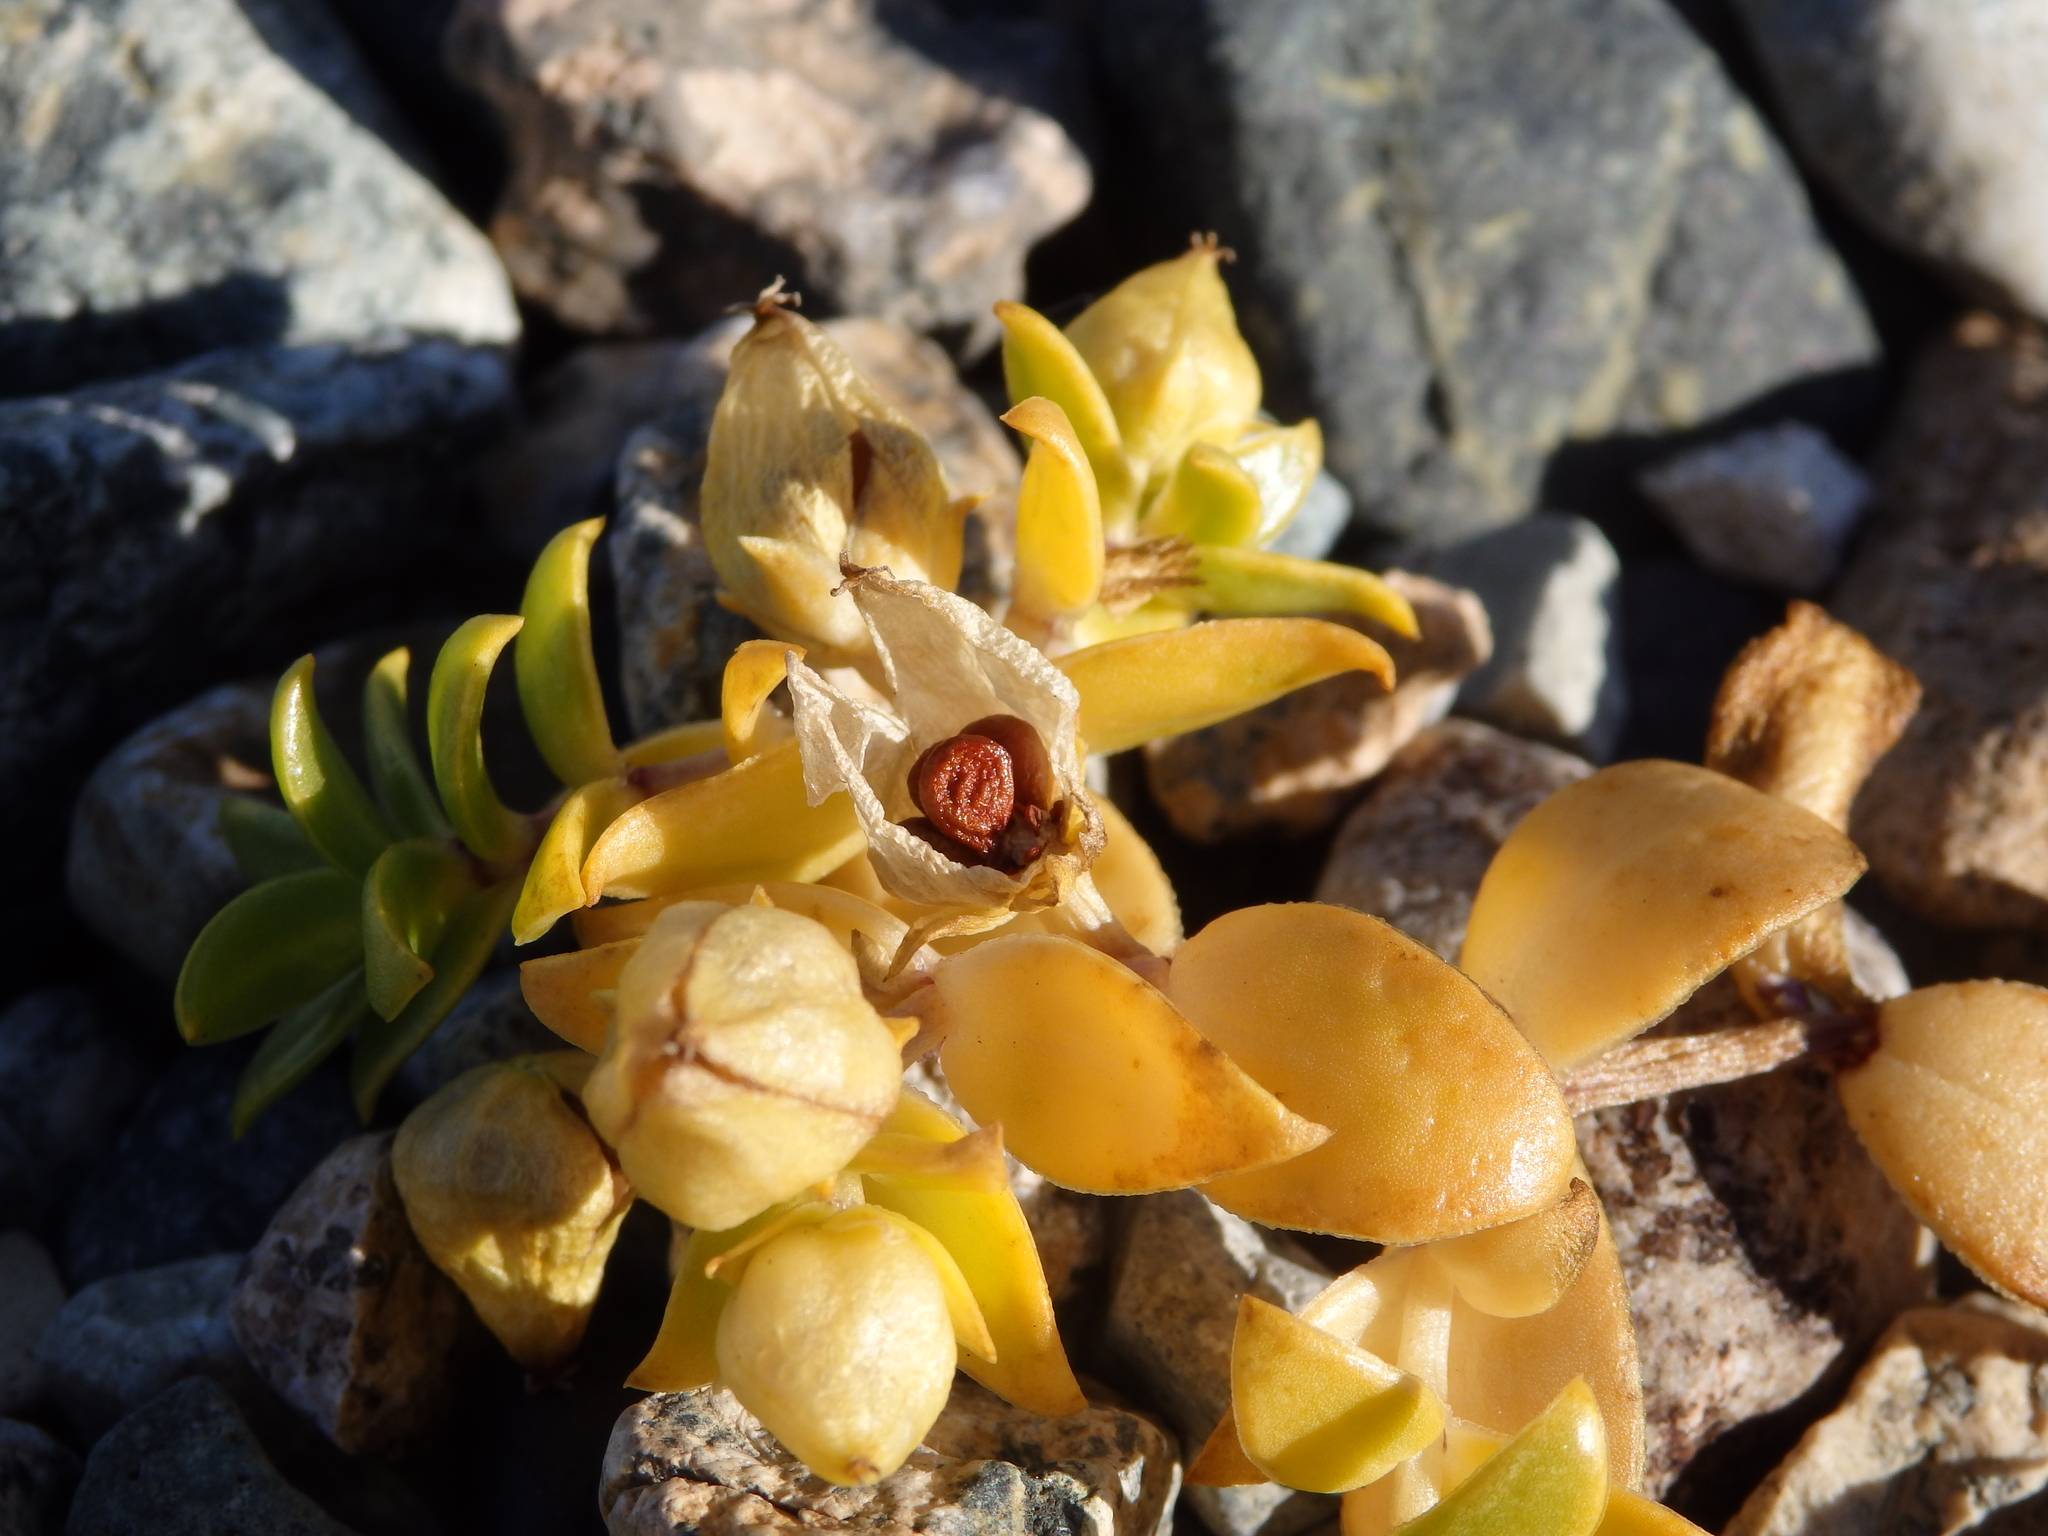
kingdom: Plantae
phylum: Tracheophyta
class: Magnoliopsida
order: Caryophyllales
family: Caryophyllaceae
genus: Honckenya
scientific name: Honckenya peploides
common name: Sea sandwort
